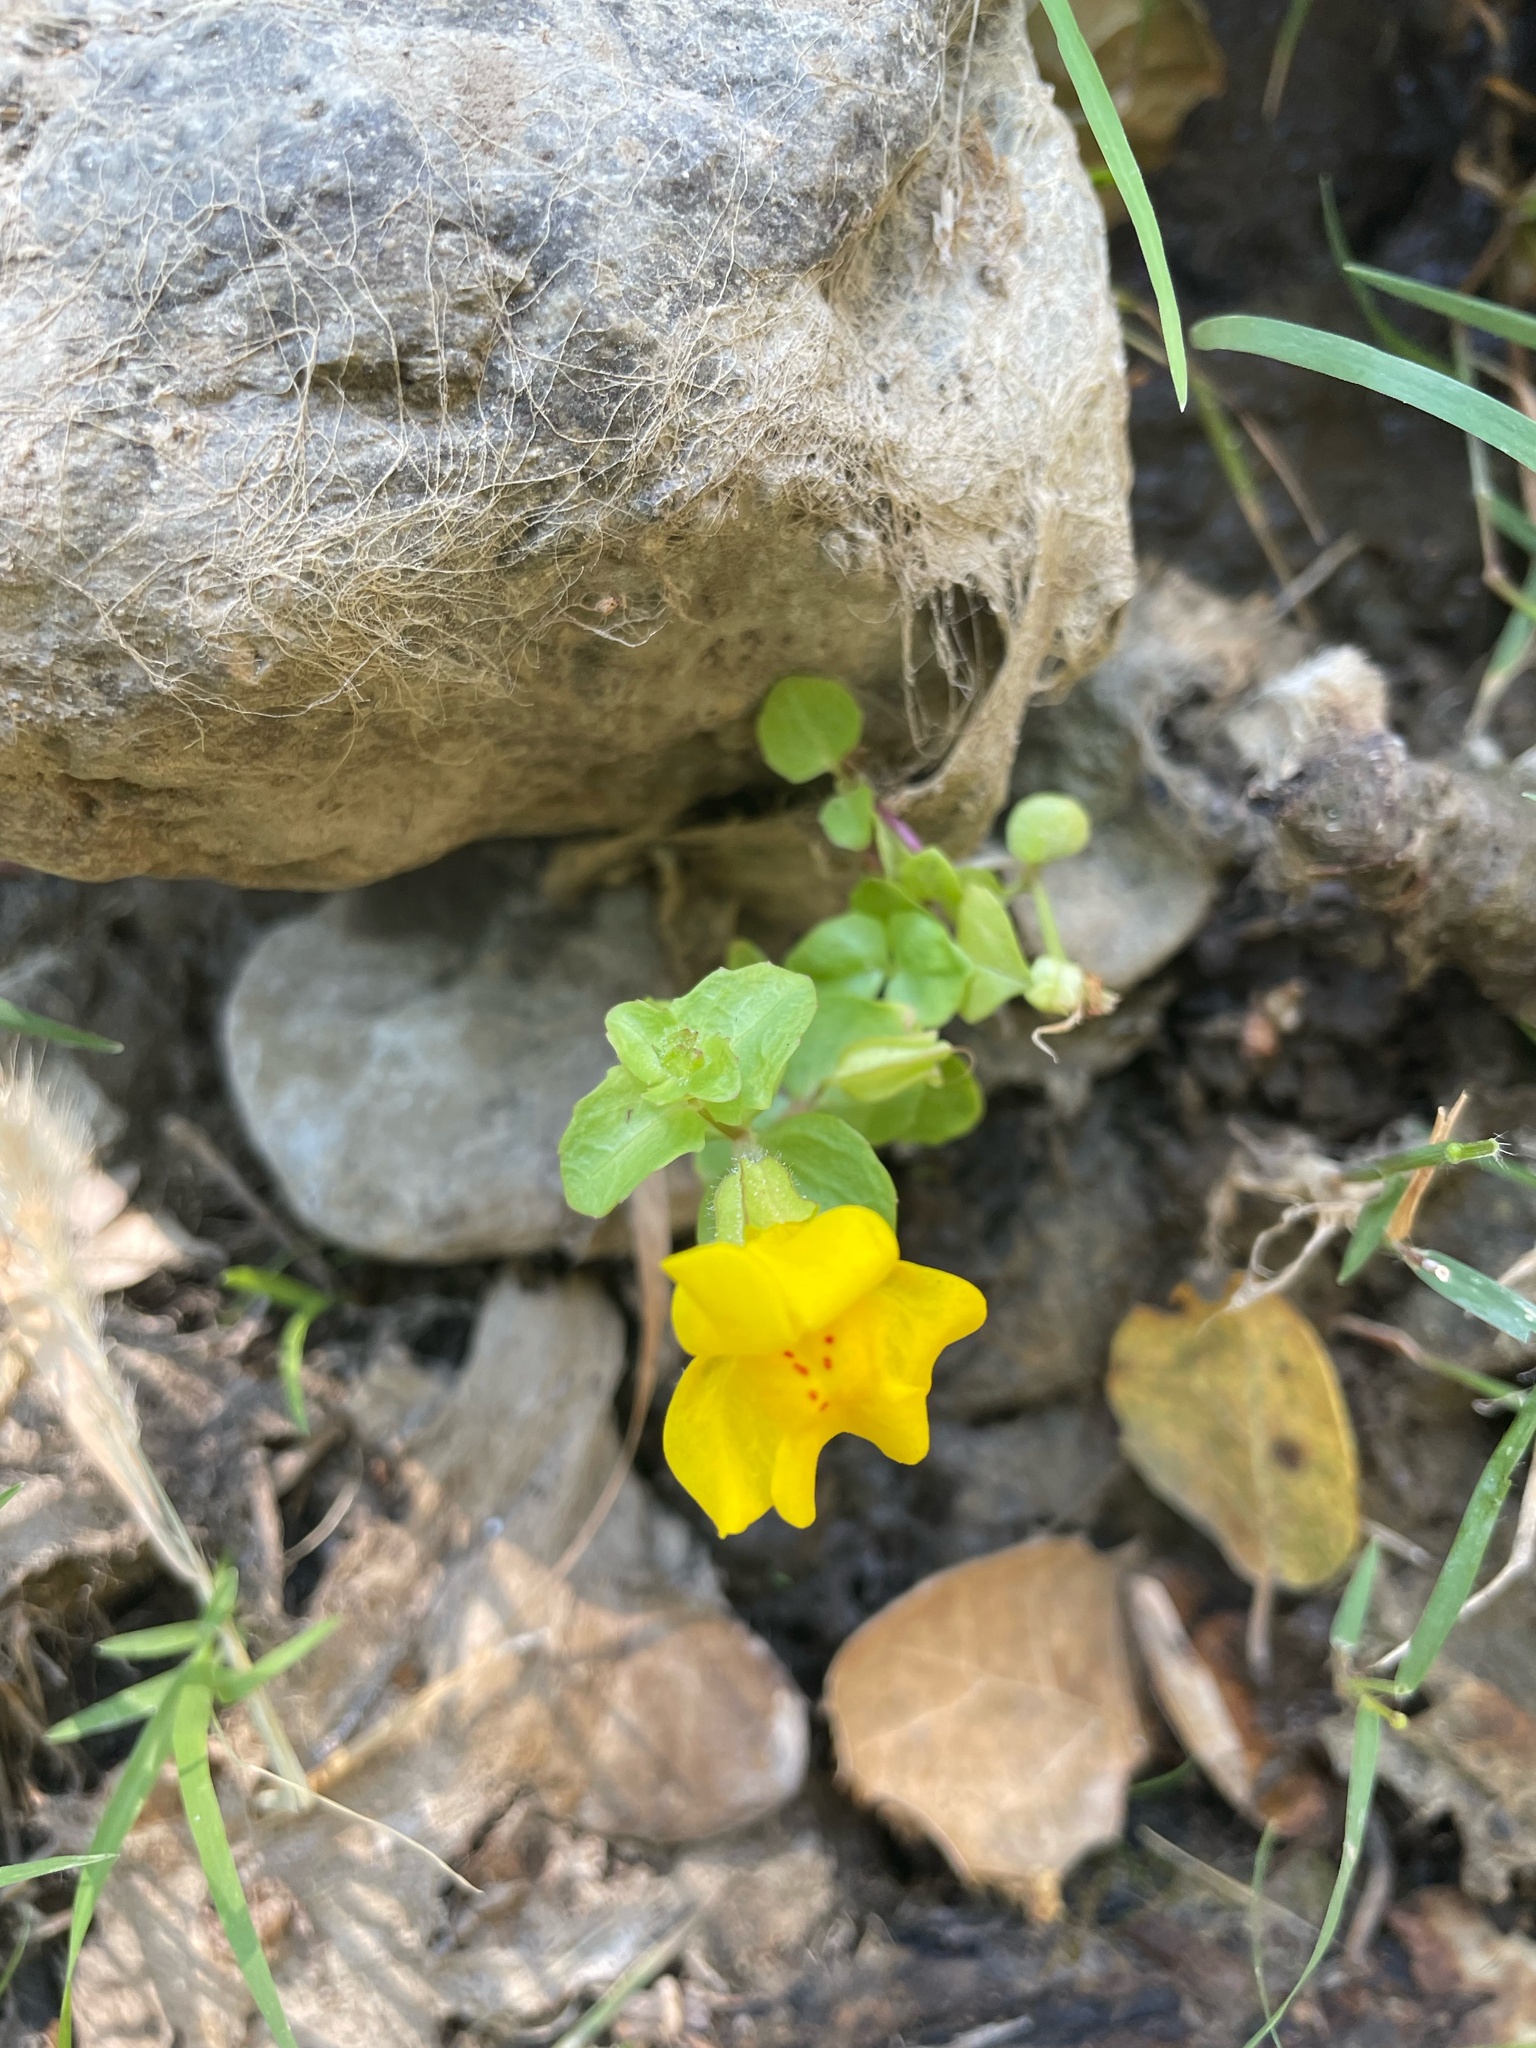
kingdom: Plantae
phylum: Tracheophyta
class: Magnoliopsida
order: Lamiales
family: Phrymaceae
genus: Erythranthe
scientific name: Erythranthe guttata
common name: Monkeyflower
